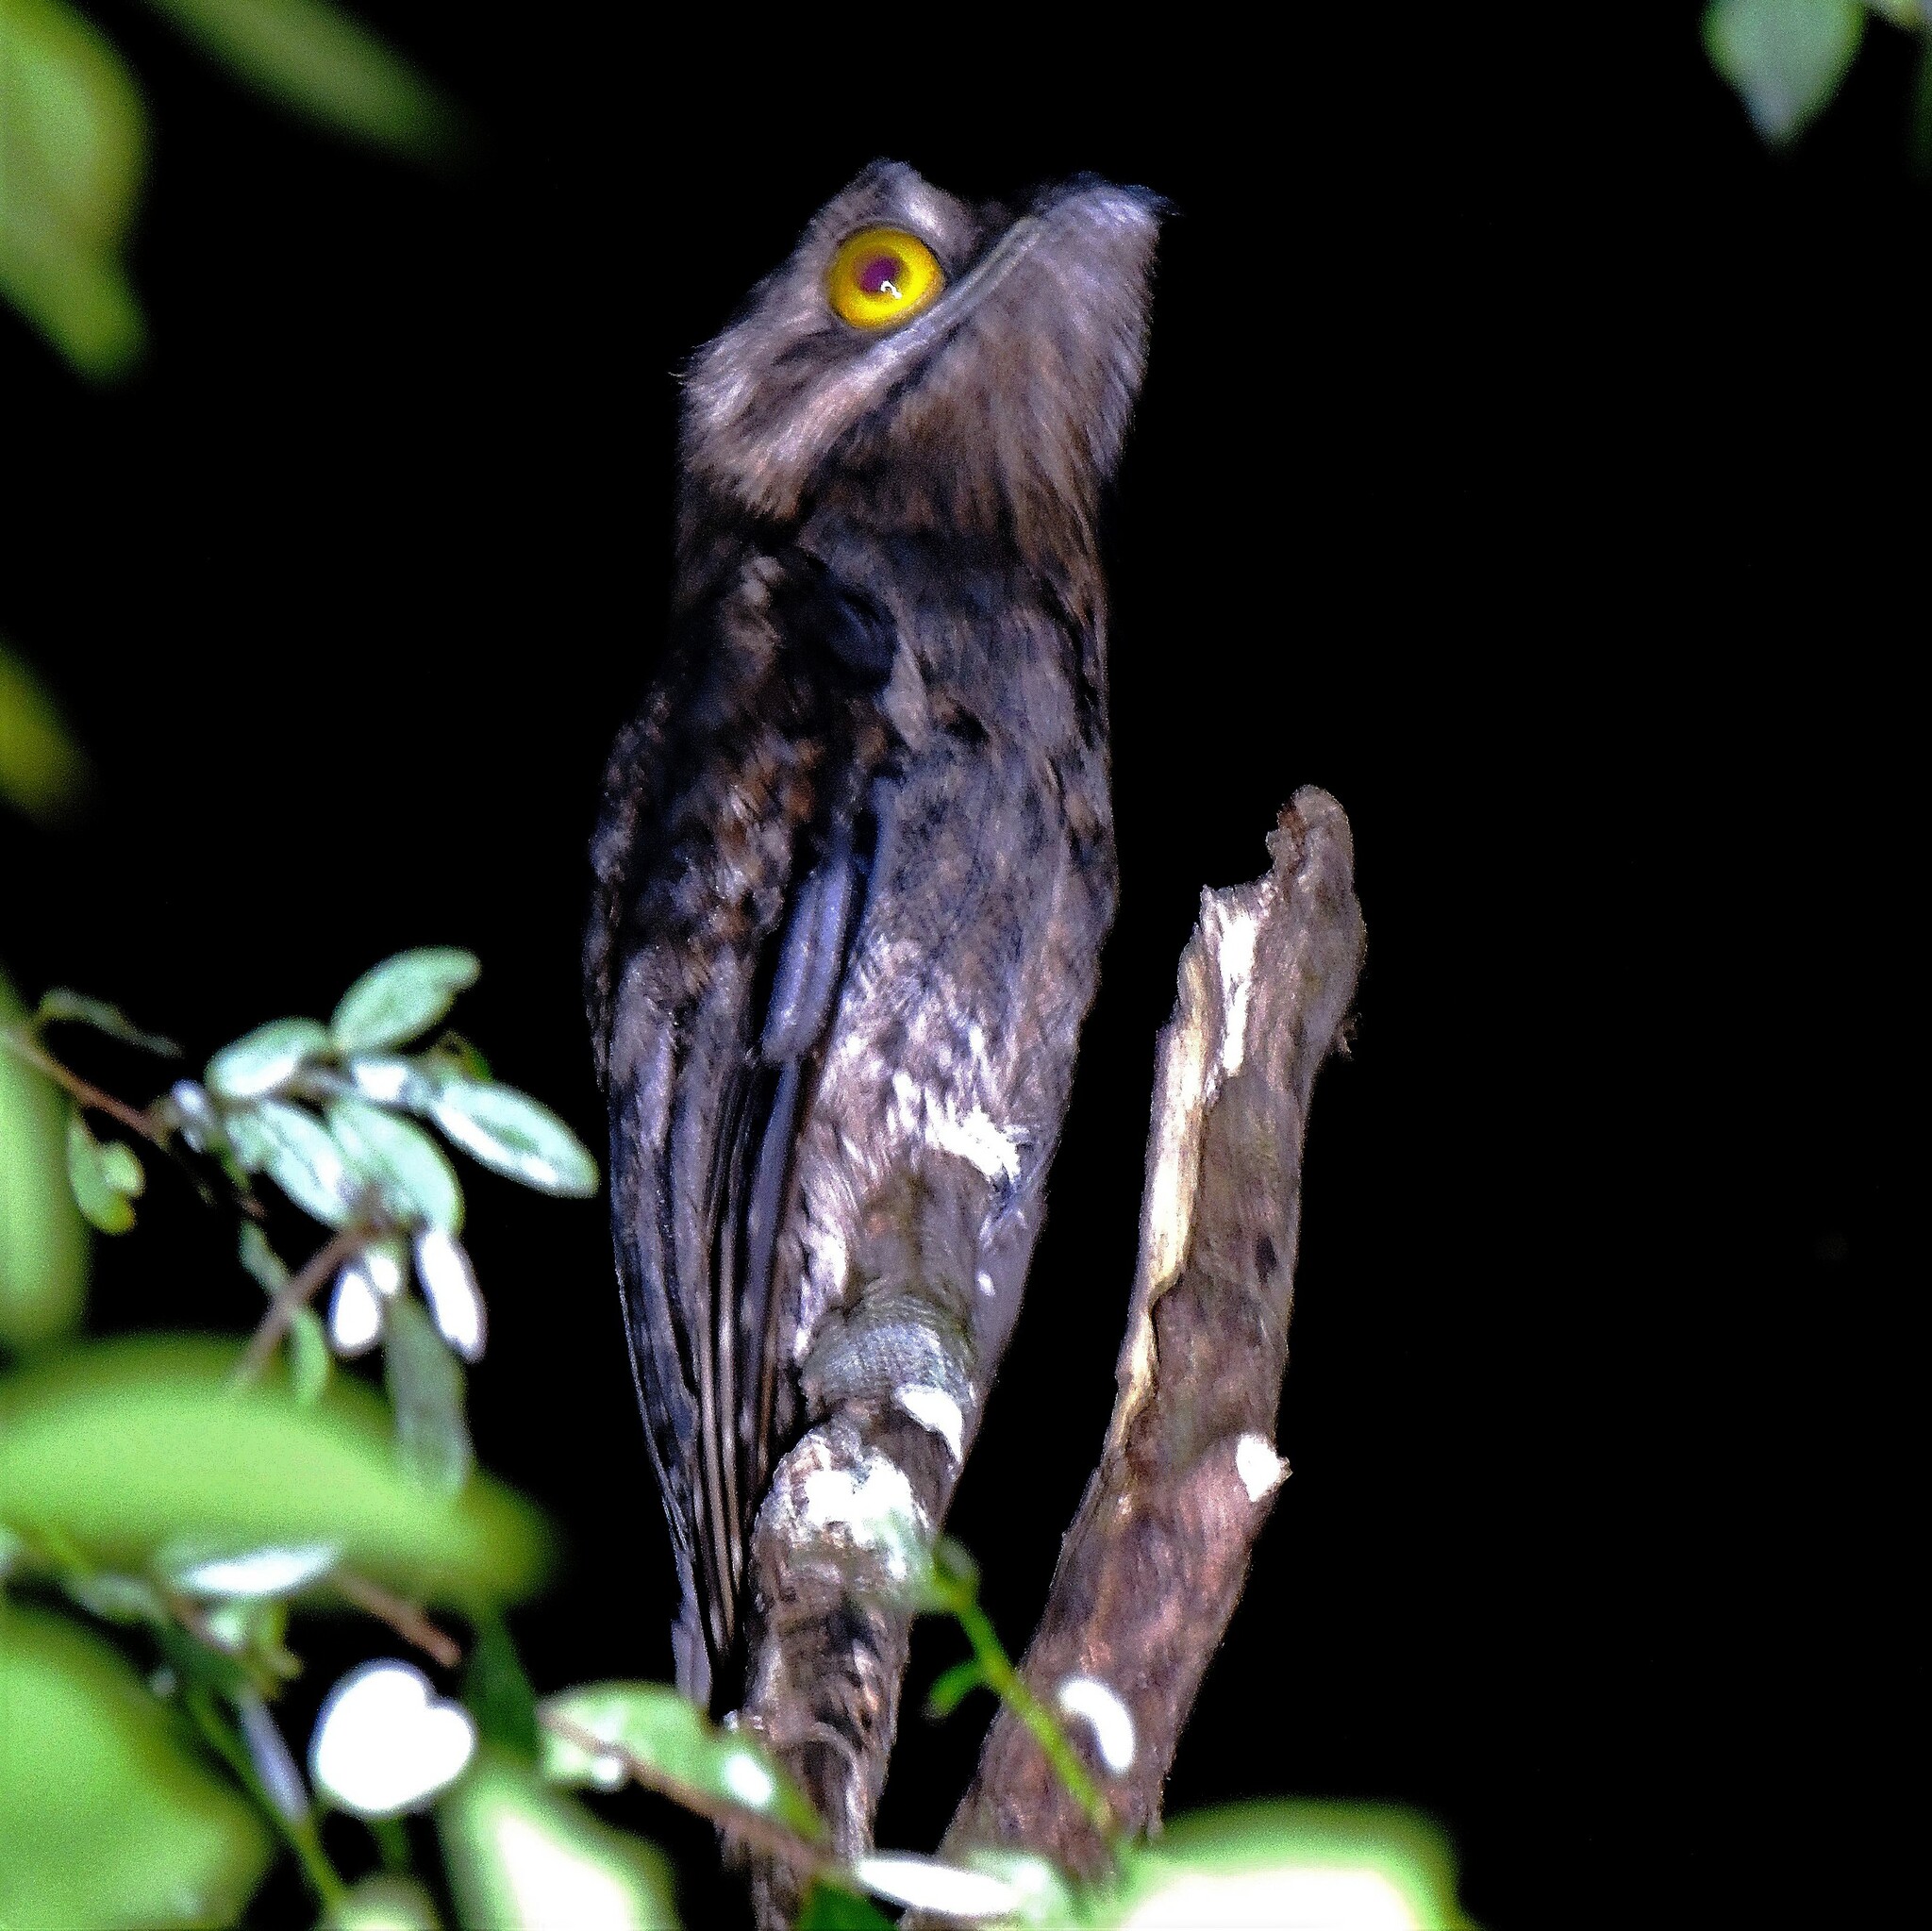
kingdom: Animalia
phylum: Chordata
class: Aves
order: Nyctibiiformes
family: Nyctibiidae
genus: Nyctibius
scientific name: Nyctibius griseus
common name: Common potoo
